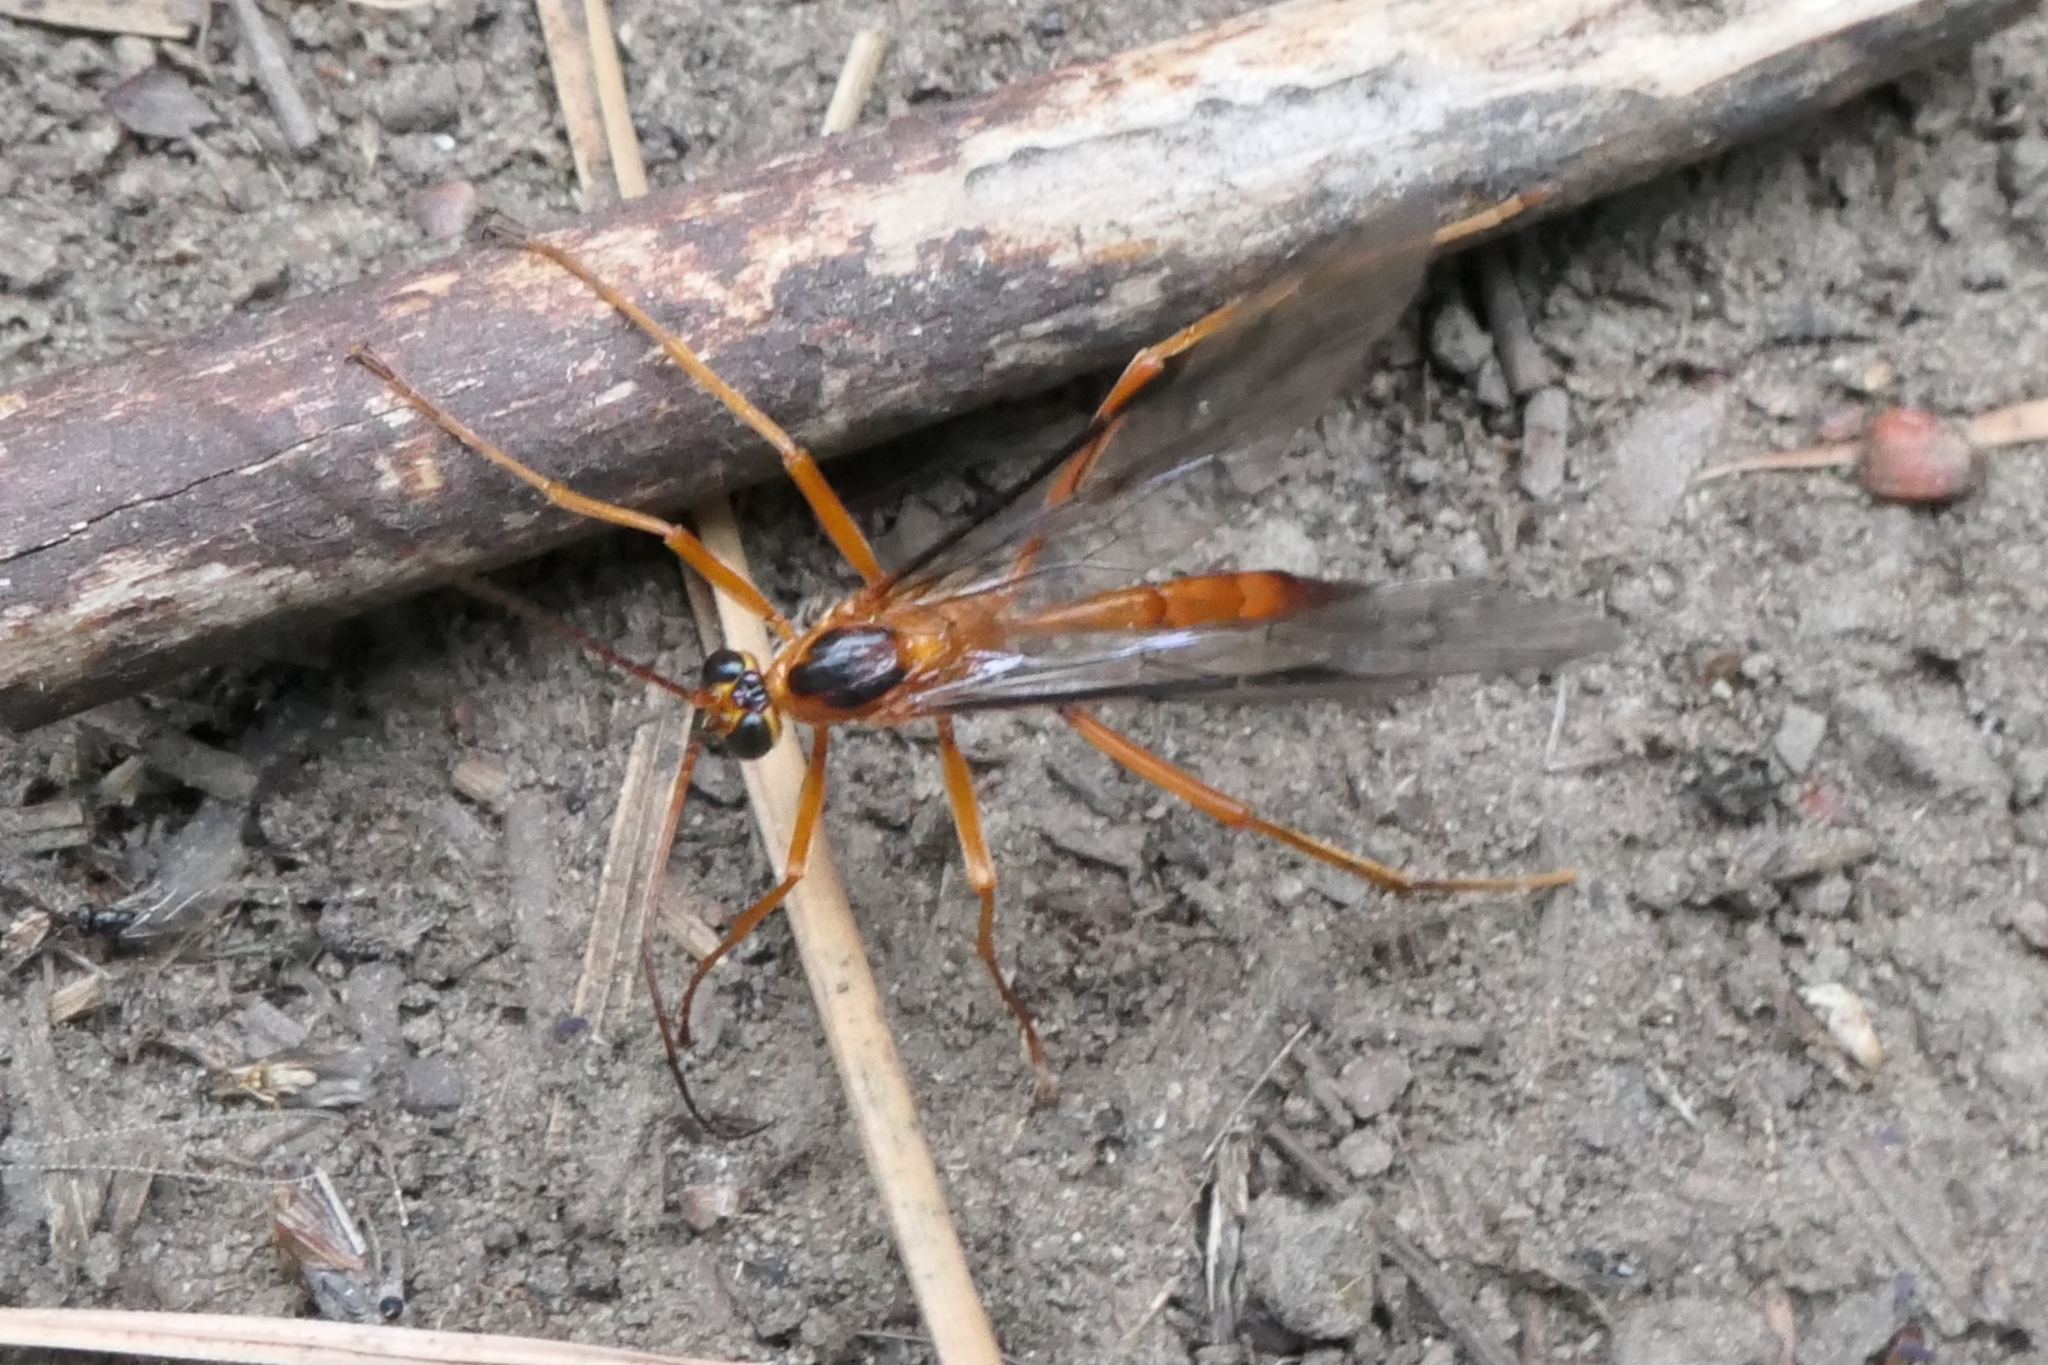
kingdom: Animalia
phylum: Arthropoda
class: Insecta
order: Hymenoptera
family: Ichneumonidae
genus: Netelia
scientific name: Netelia ephippiata
